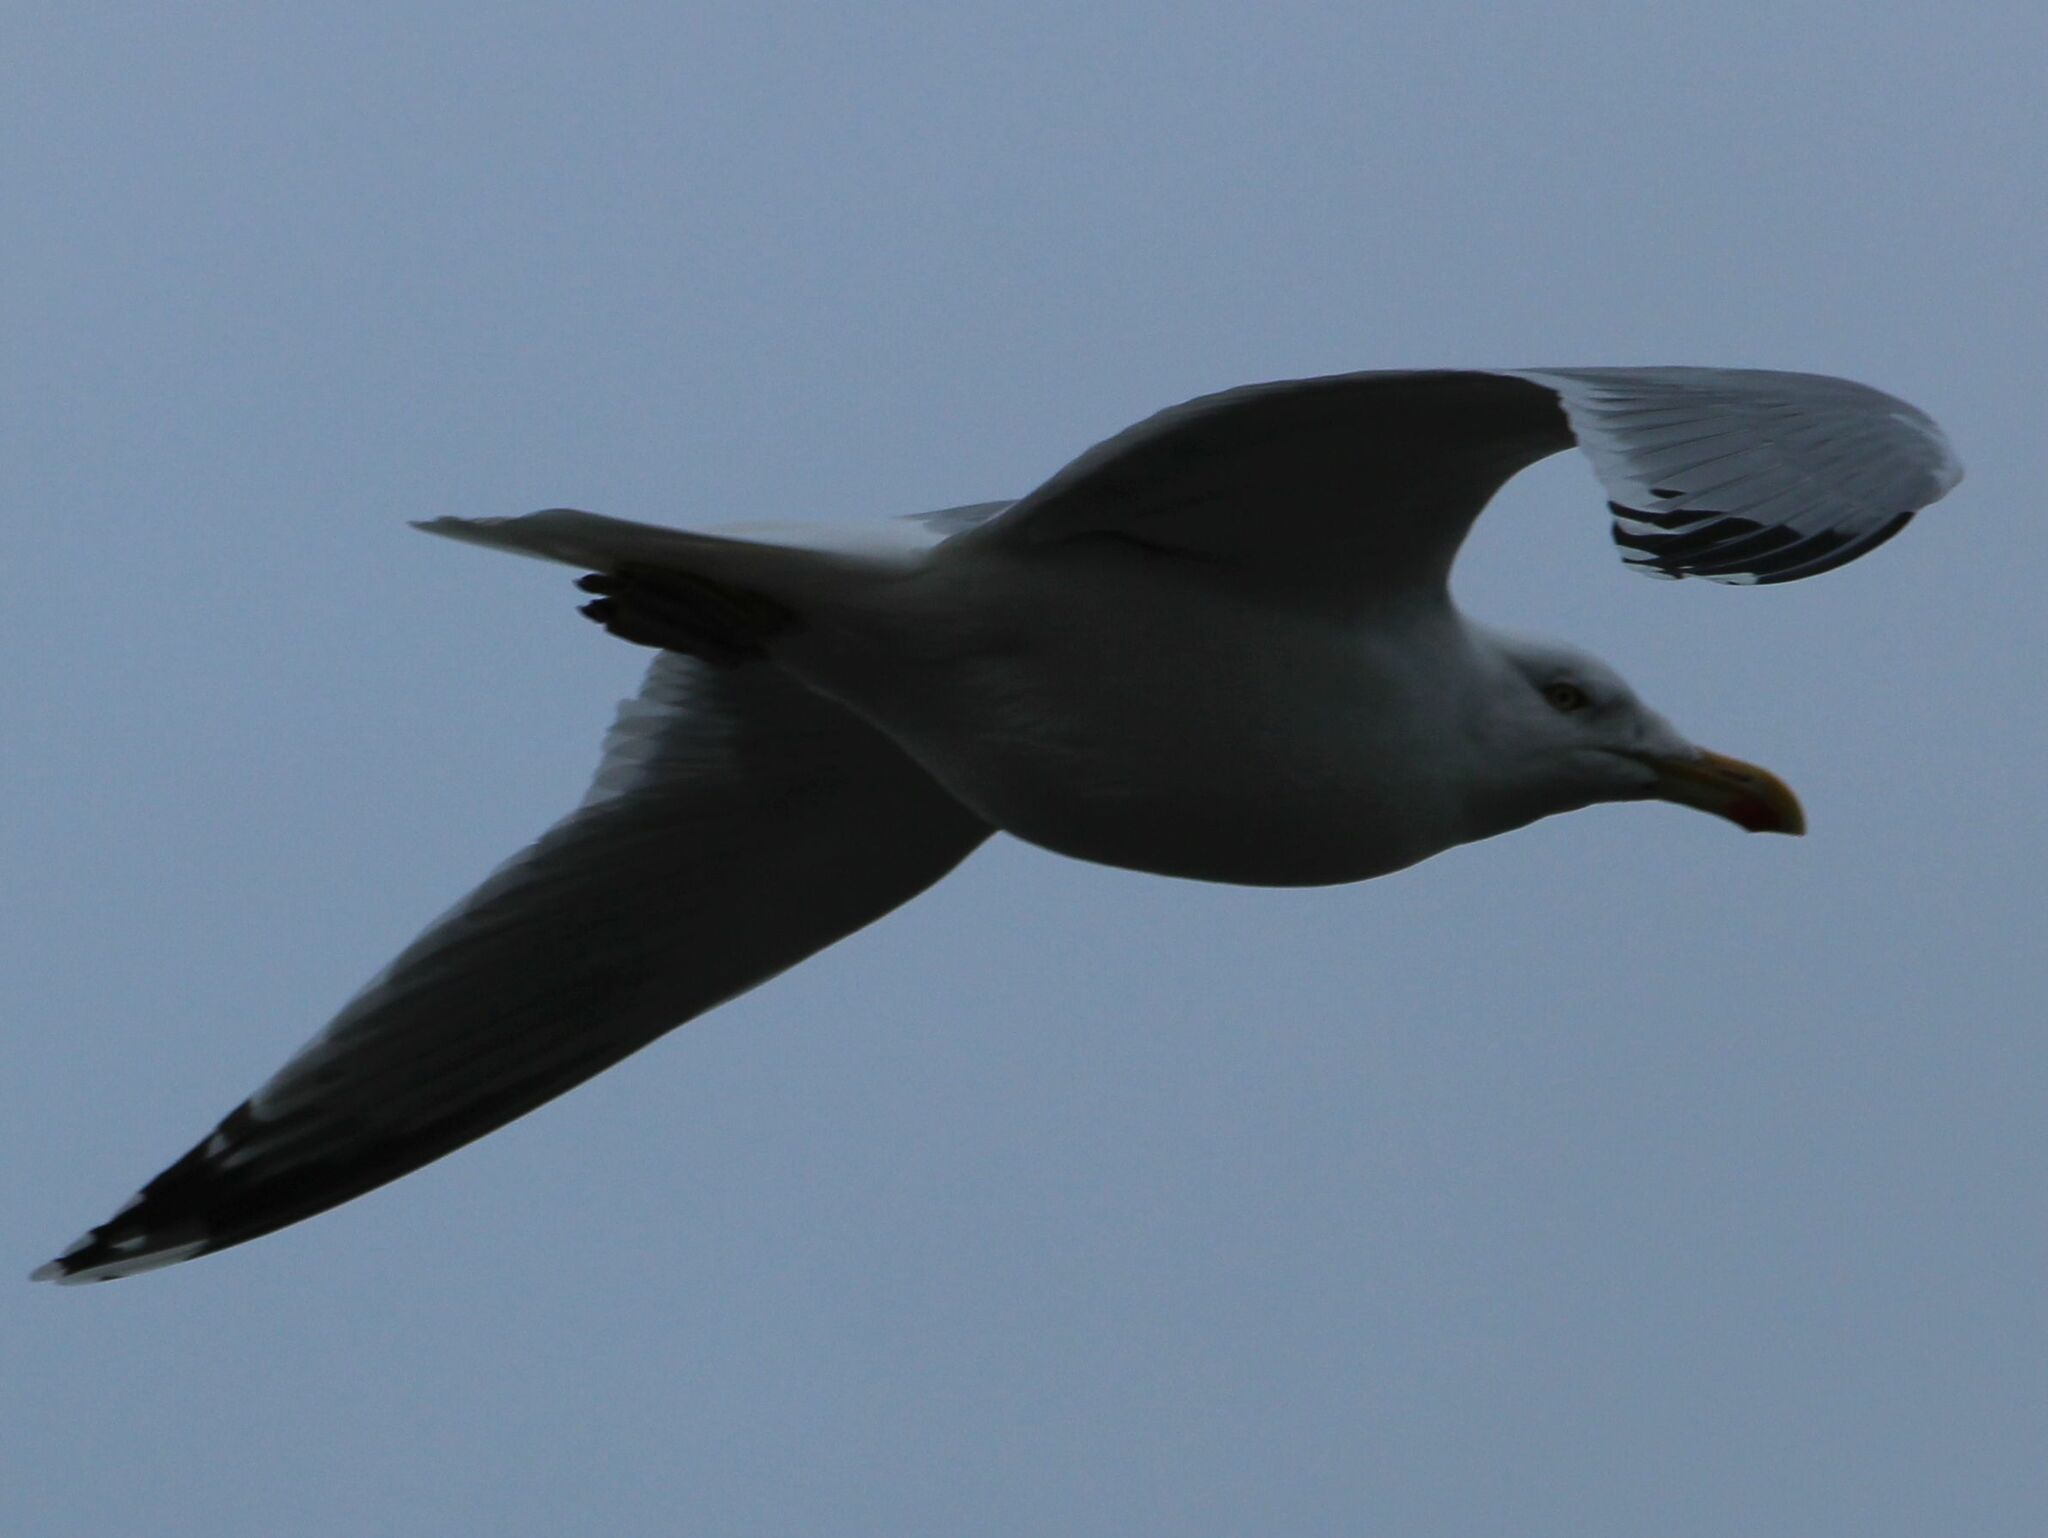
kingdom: Animalia
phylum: Chordata
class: Aves
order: Charadriiformes
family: Laridae
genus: Larus
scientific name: Larus argentatus
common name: Herring gull
